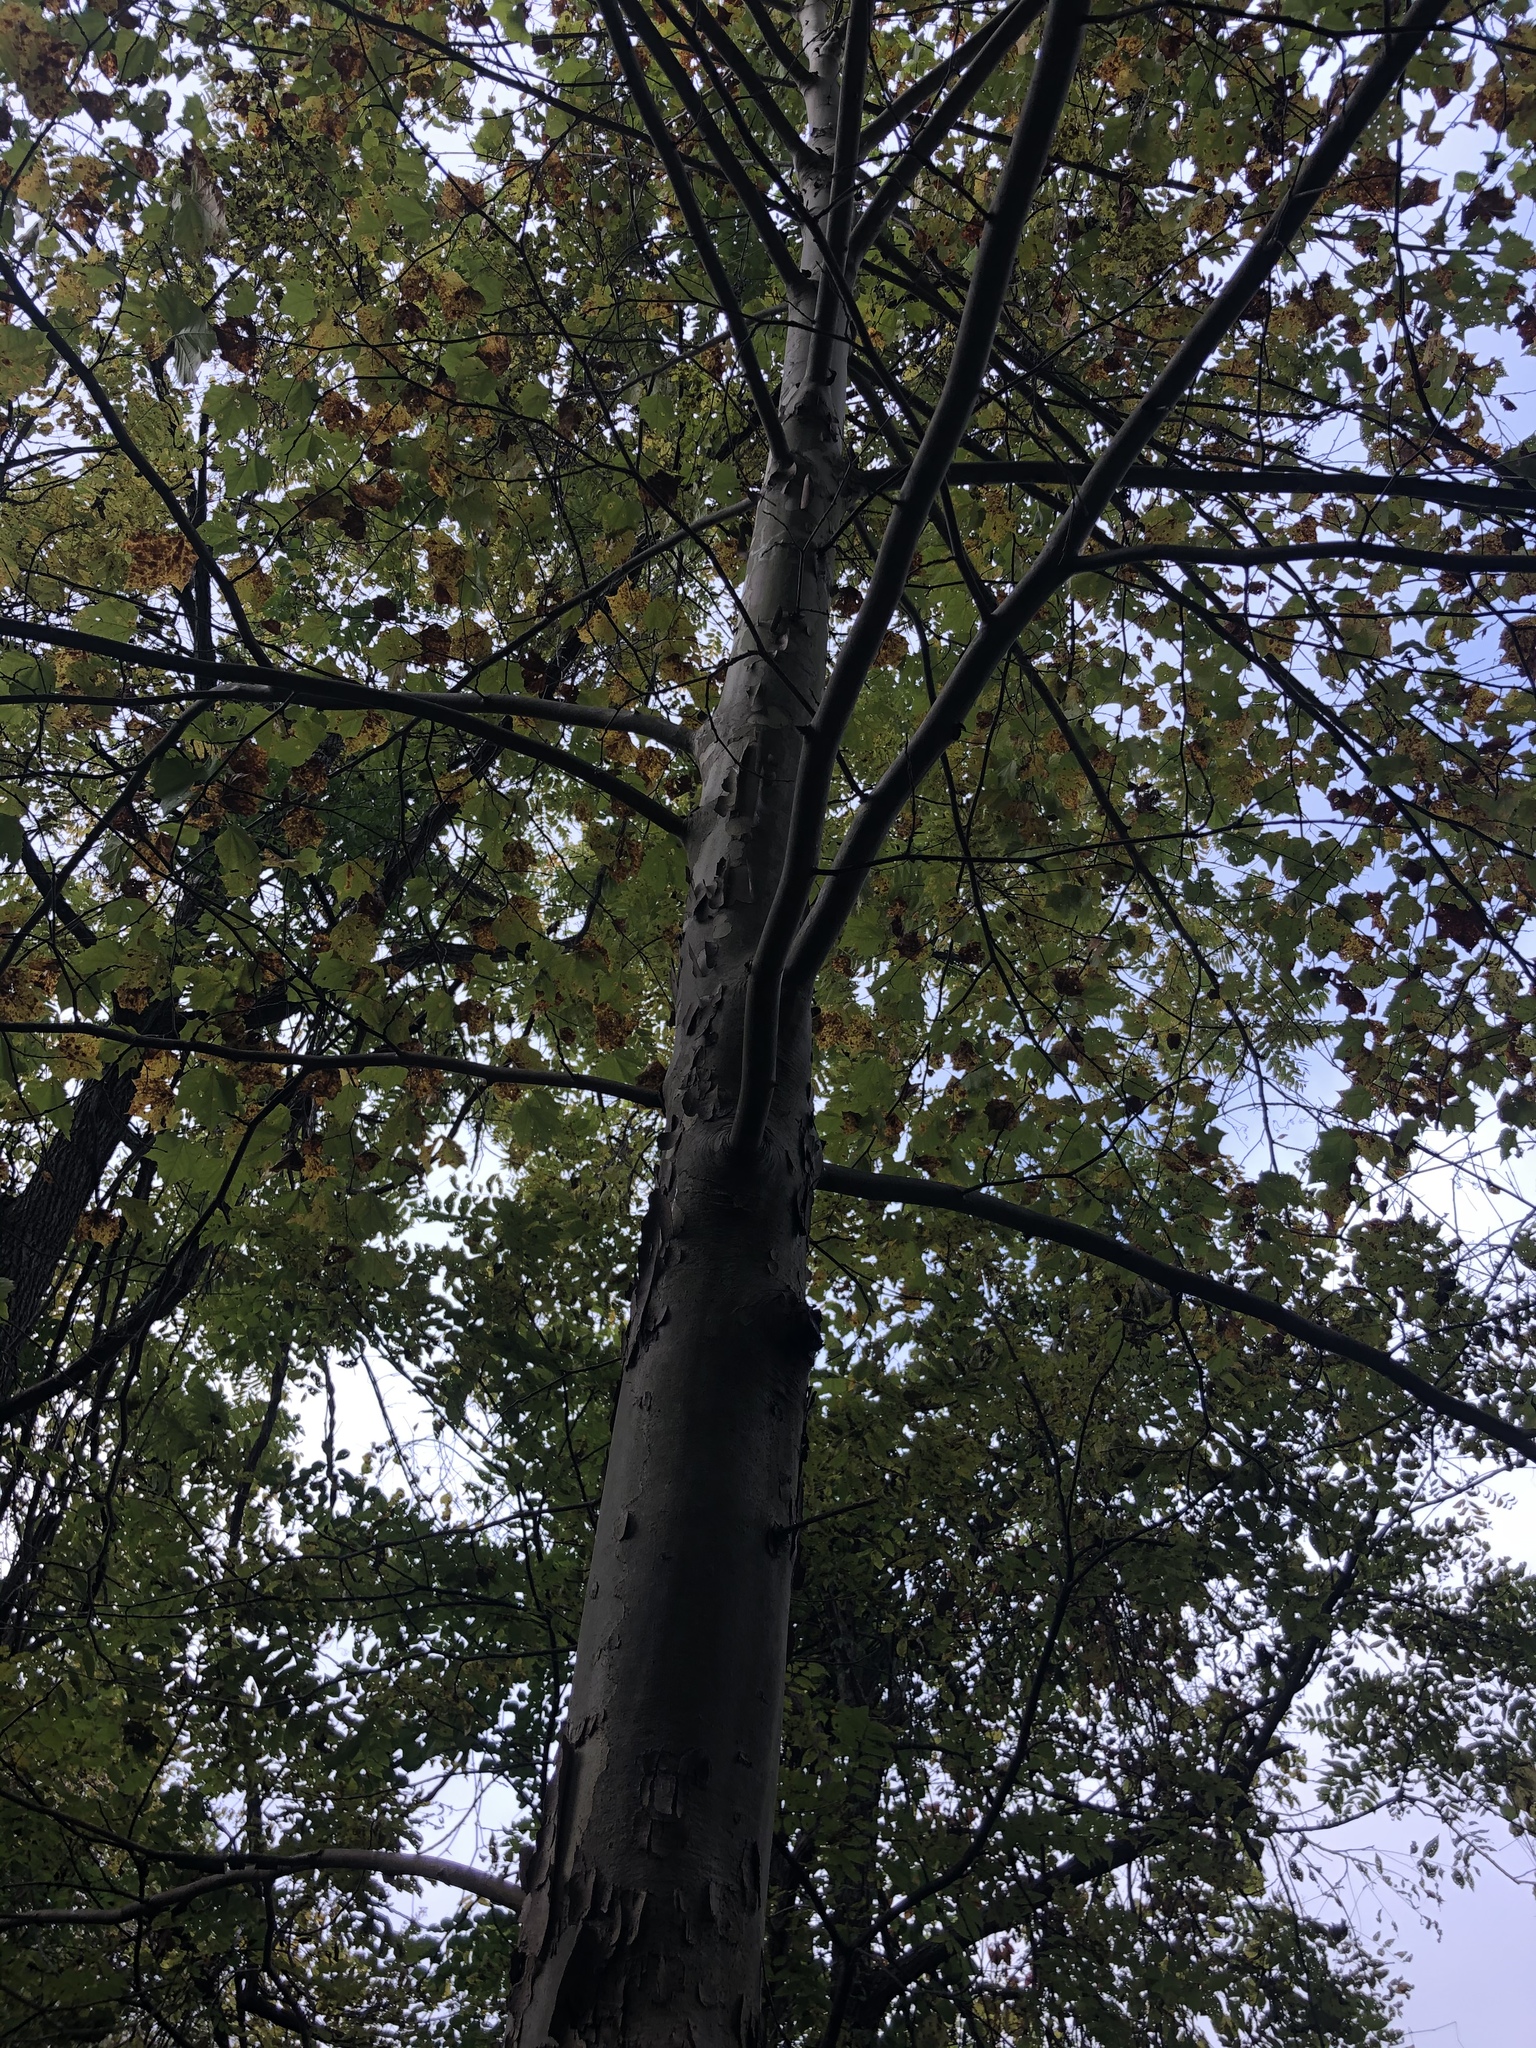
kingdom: Plantae
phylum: Tracheophyta
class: Magnoliopsida
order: Proteales
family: Platanaceae
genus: Platanus
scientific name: Platanus occidentalis
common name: American sycamore
